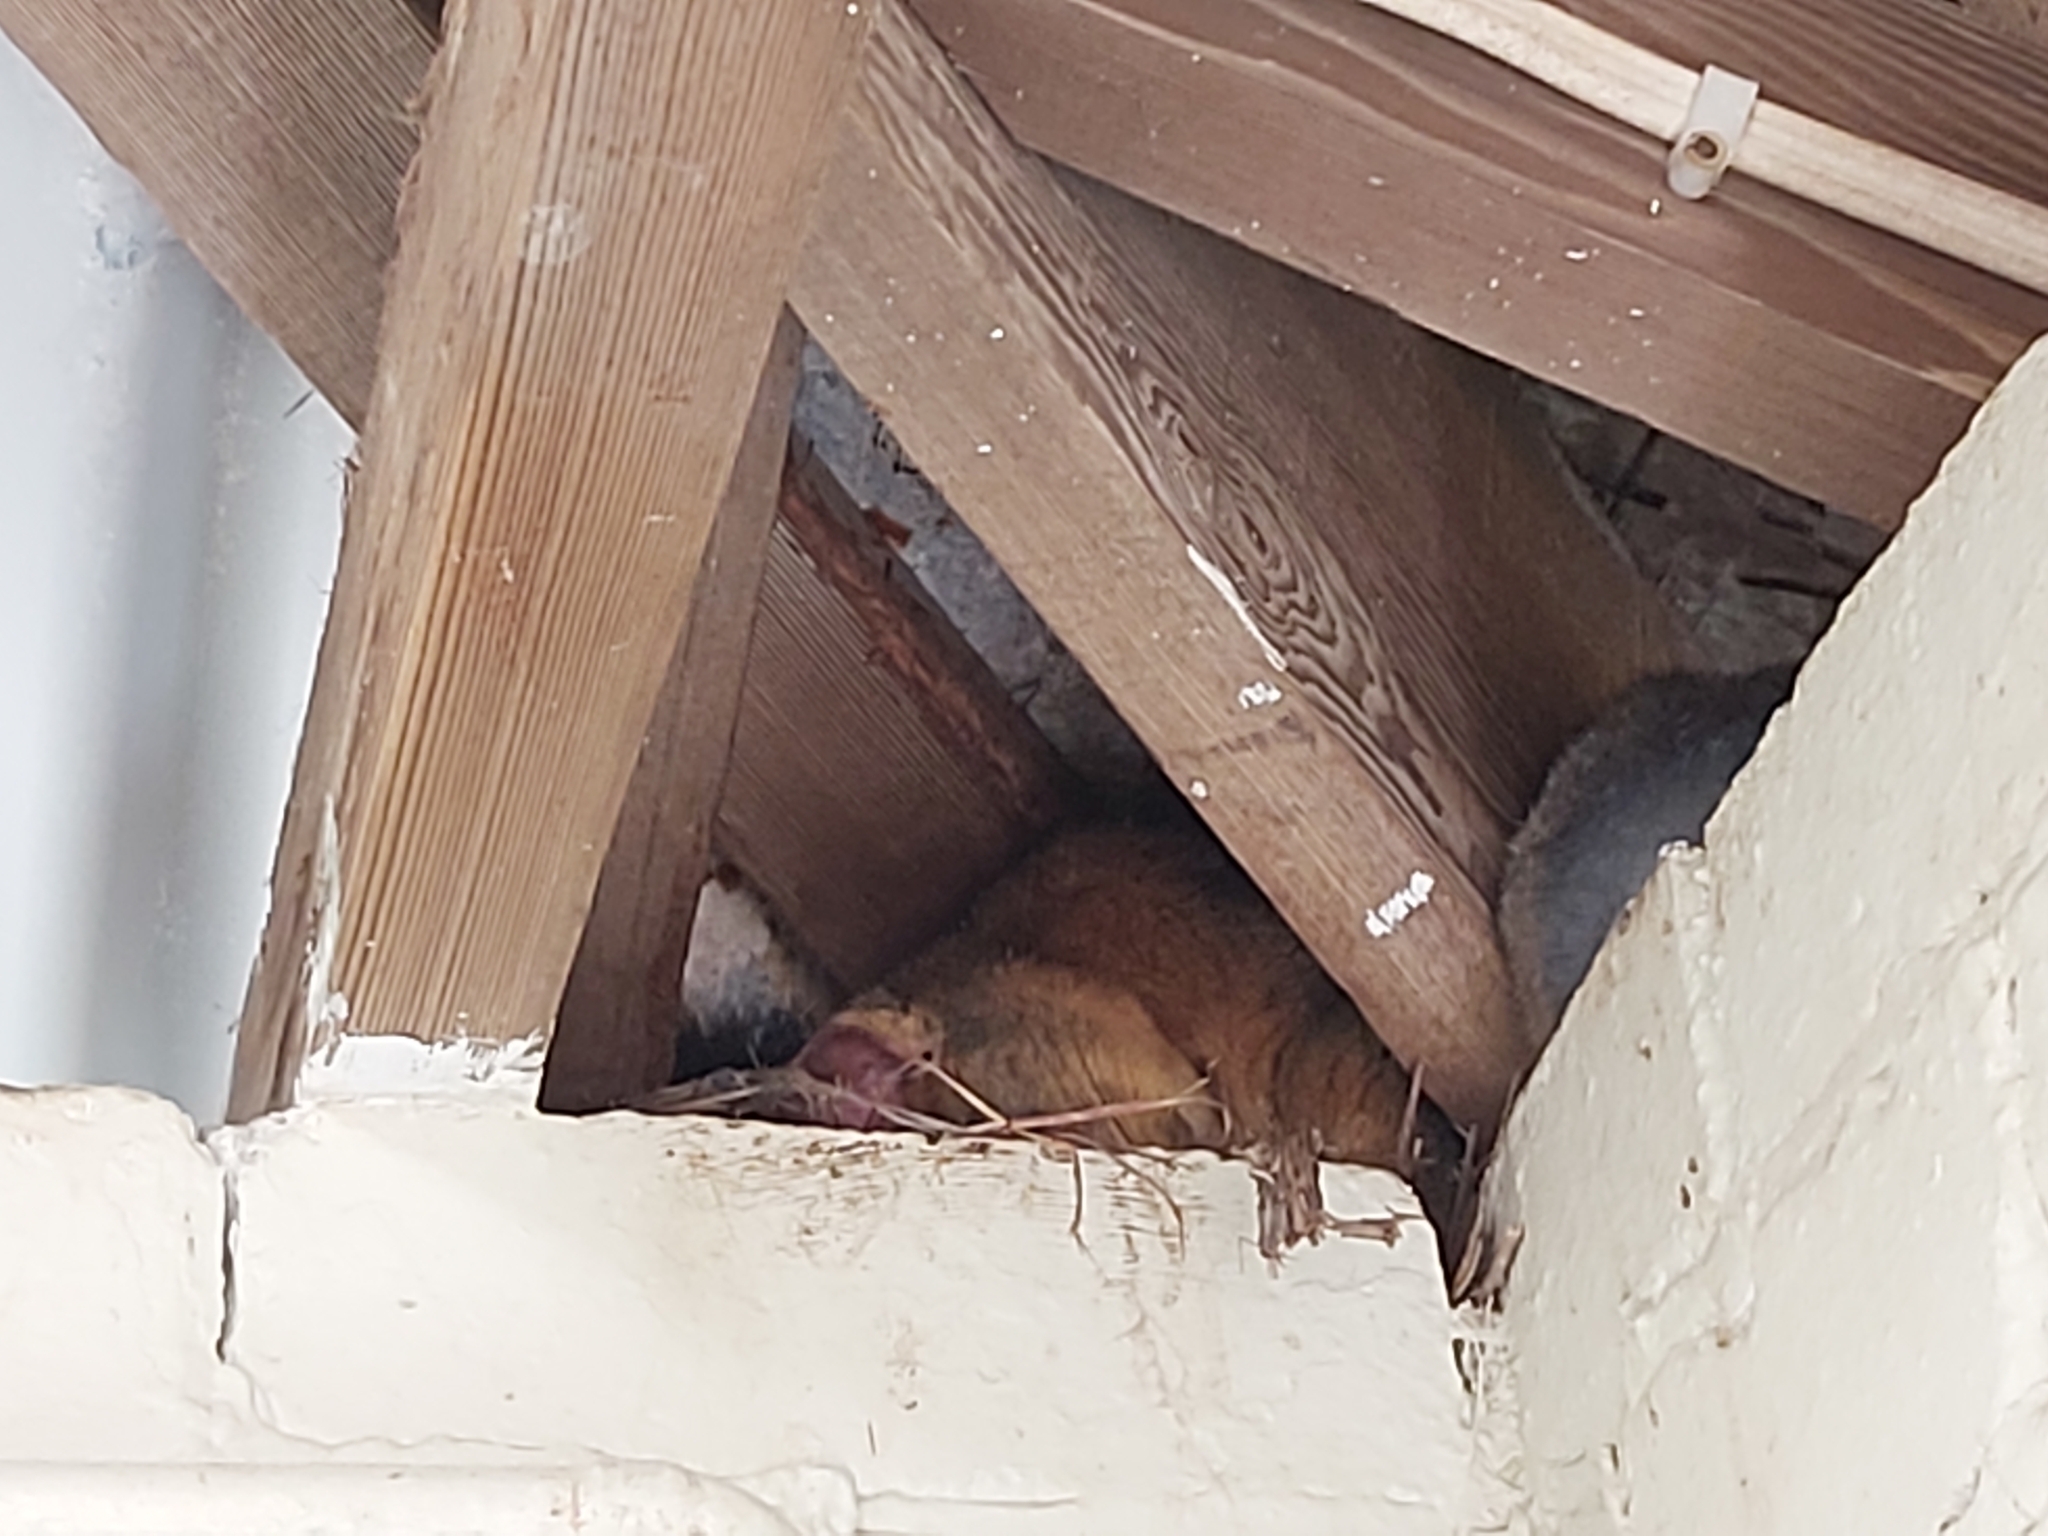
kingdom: Animalia
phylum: Chordata
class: Mammalia
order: Diprotodontia
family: Phalangeridae
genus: Trichosurus
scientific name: Trichosurus vulpecula
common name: Common brushtail
